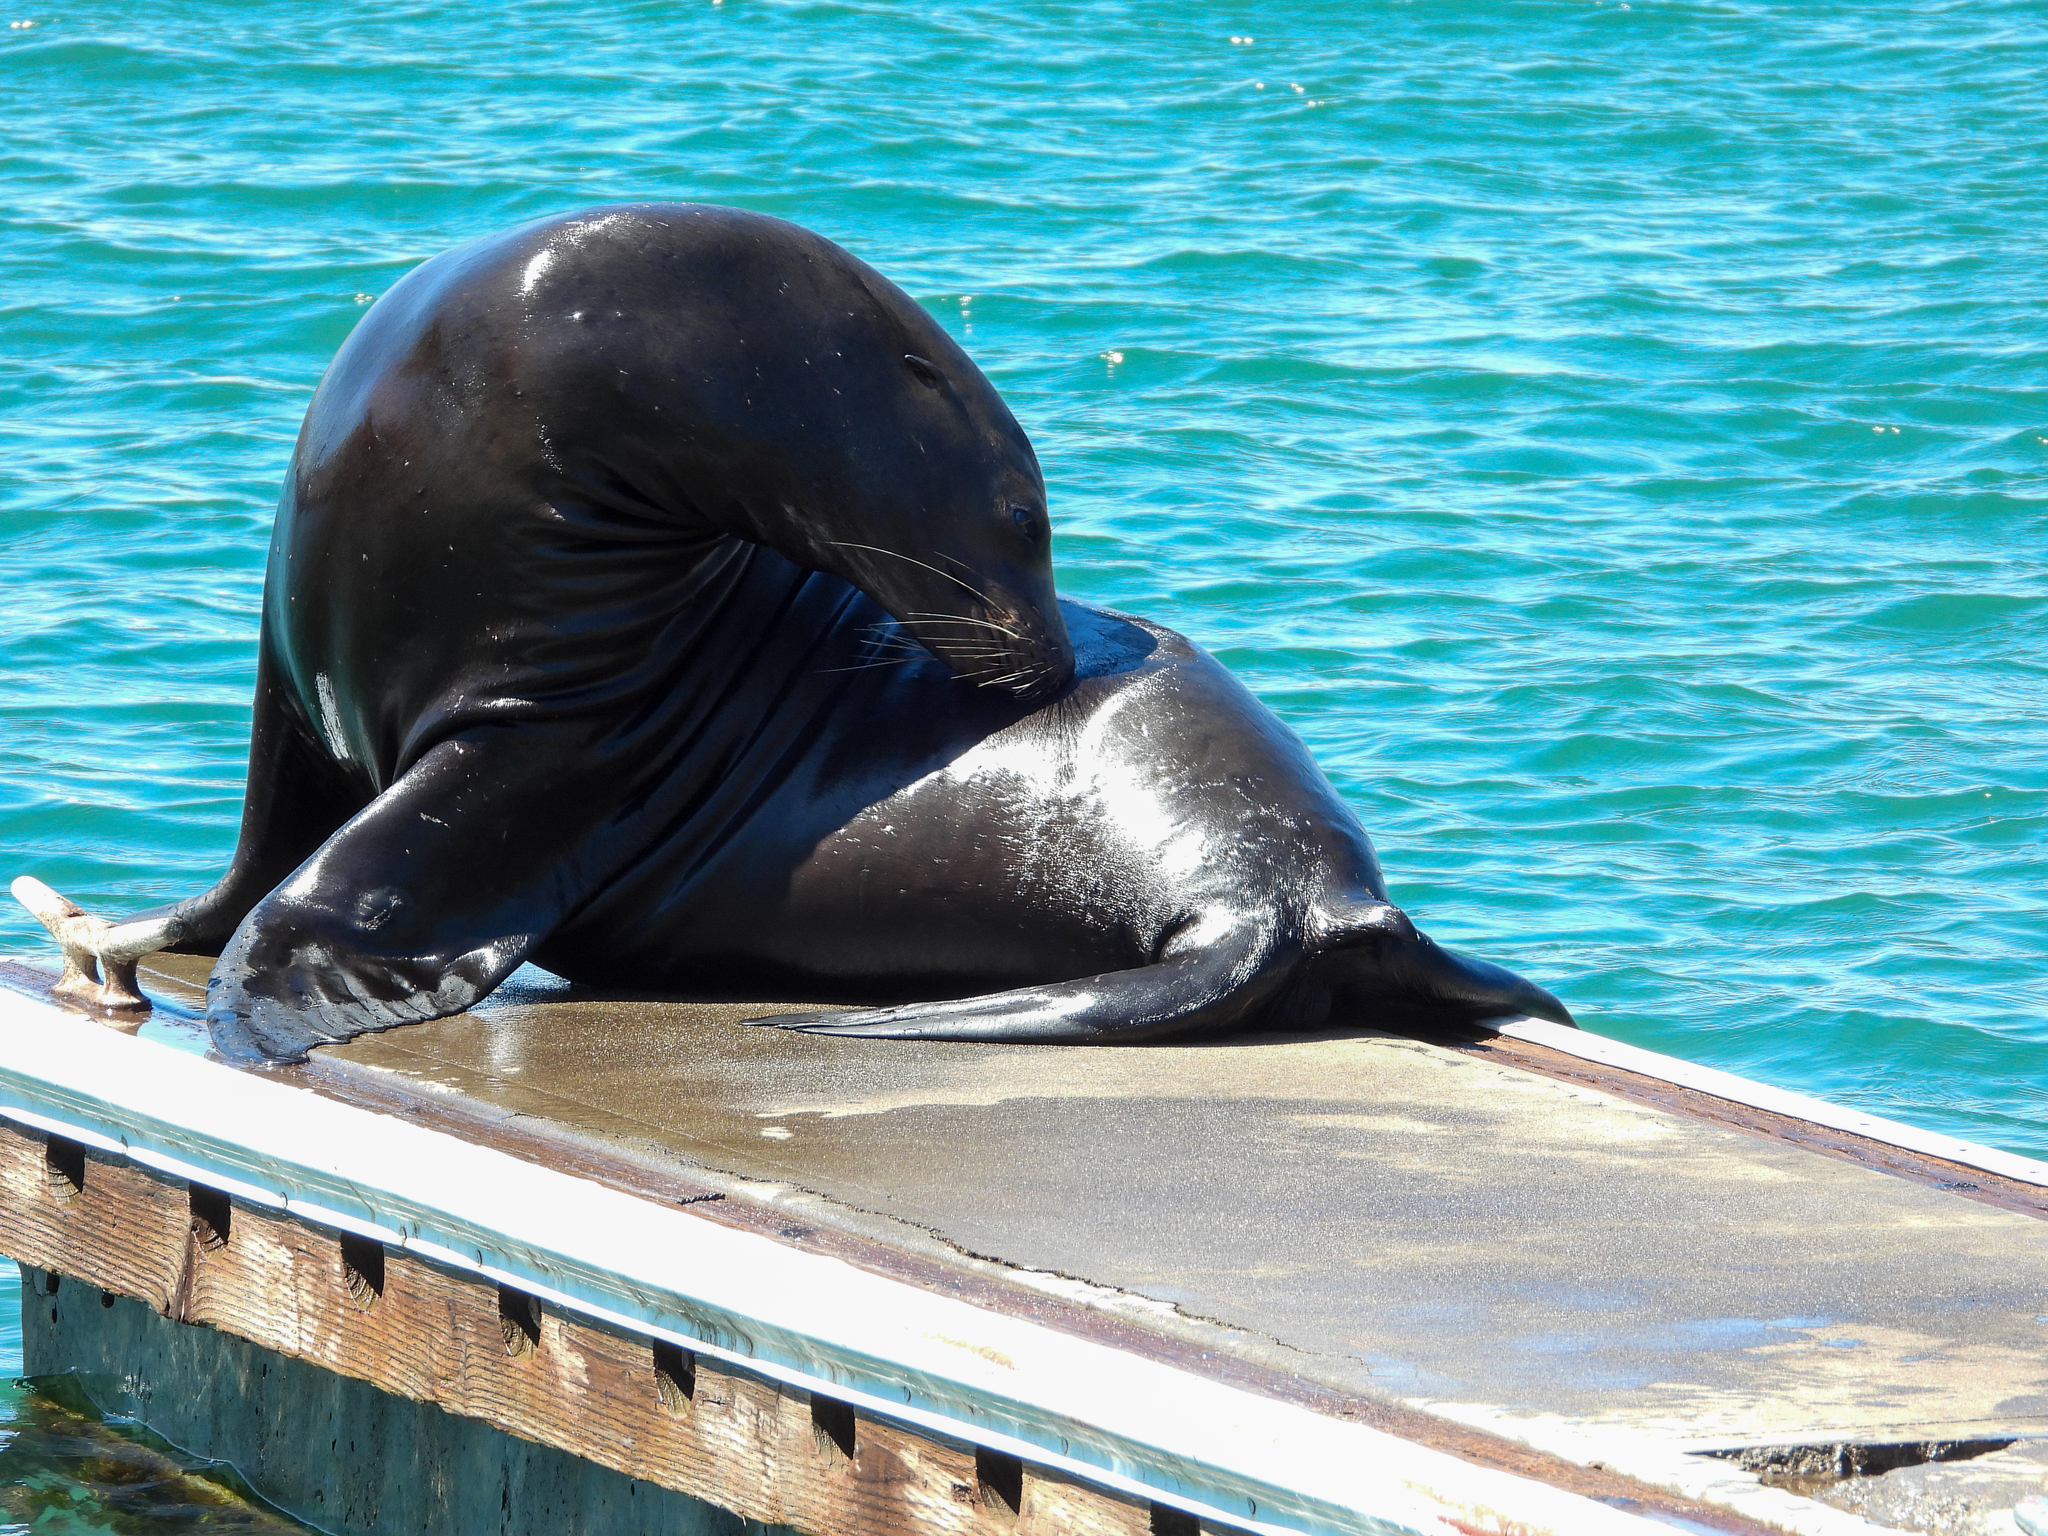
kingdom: Animalia
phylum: Chordata
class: Mammalia
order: Carnivora
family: Otariidae
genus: Zalophus
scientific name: Zalophus californianus
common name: California sea lion
